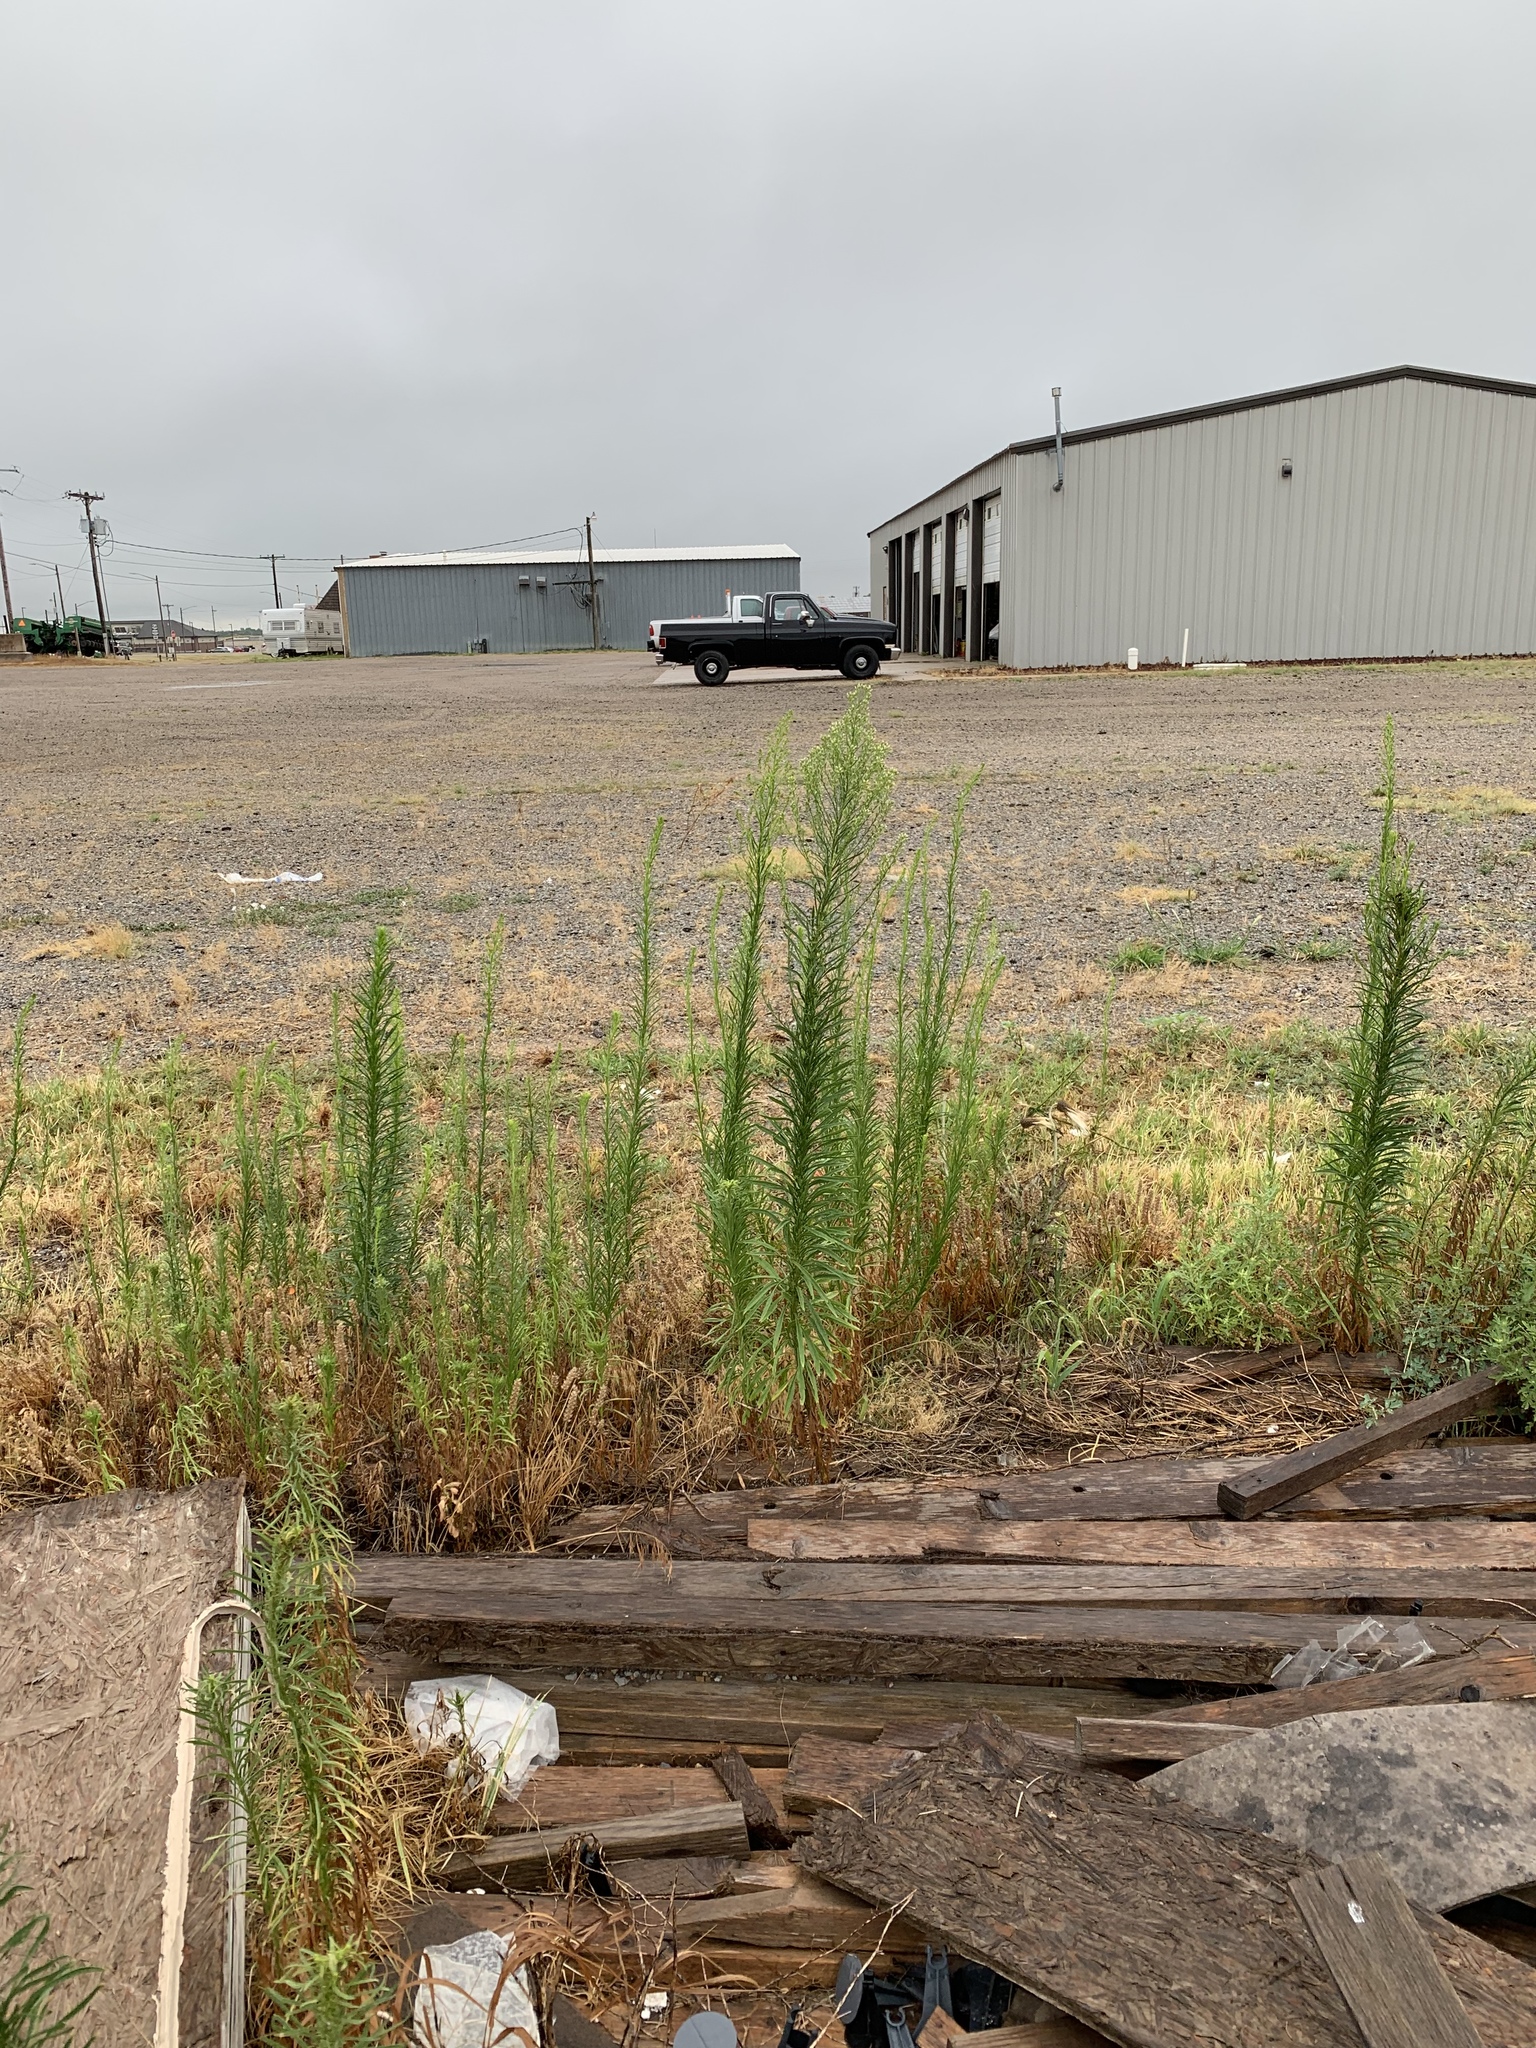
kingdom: Plantae
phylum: Tracheophyta
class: Magnoliopsida
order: Asterales
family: Asteraceae
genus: Erigeron
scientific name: Erigeron canadensis
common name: Canadian fleabane
